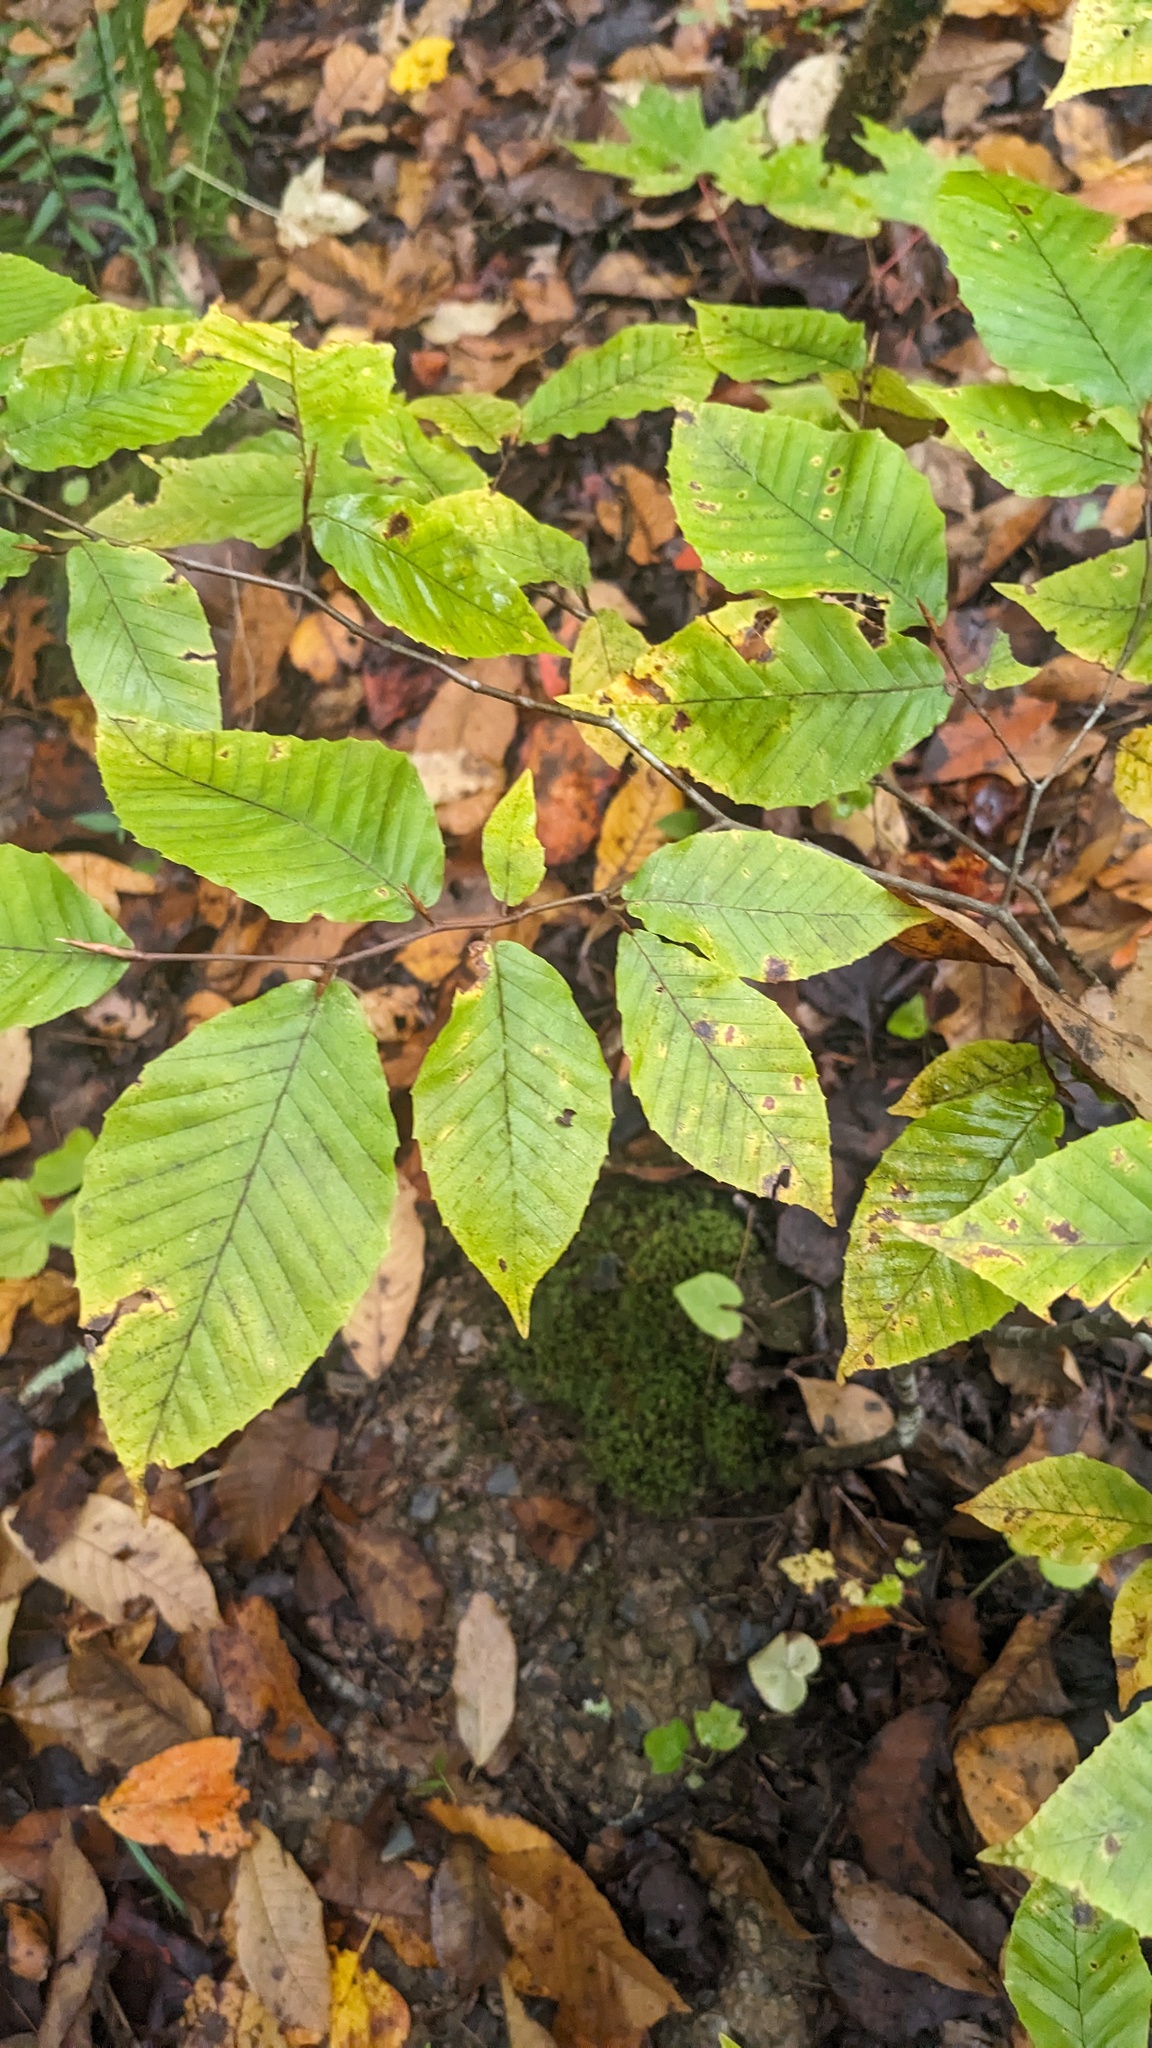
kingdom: Plantae
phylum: Tracheophyta
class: Magnoliopsida
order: Fagales
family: Fagaceae
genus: Fagus
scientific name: Fagus grandifolia
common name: American beech
